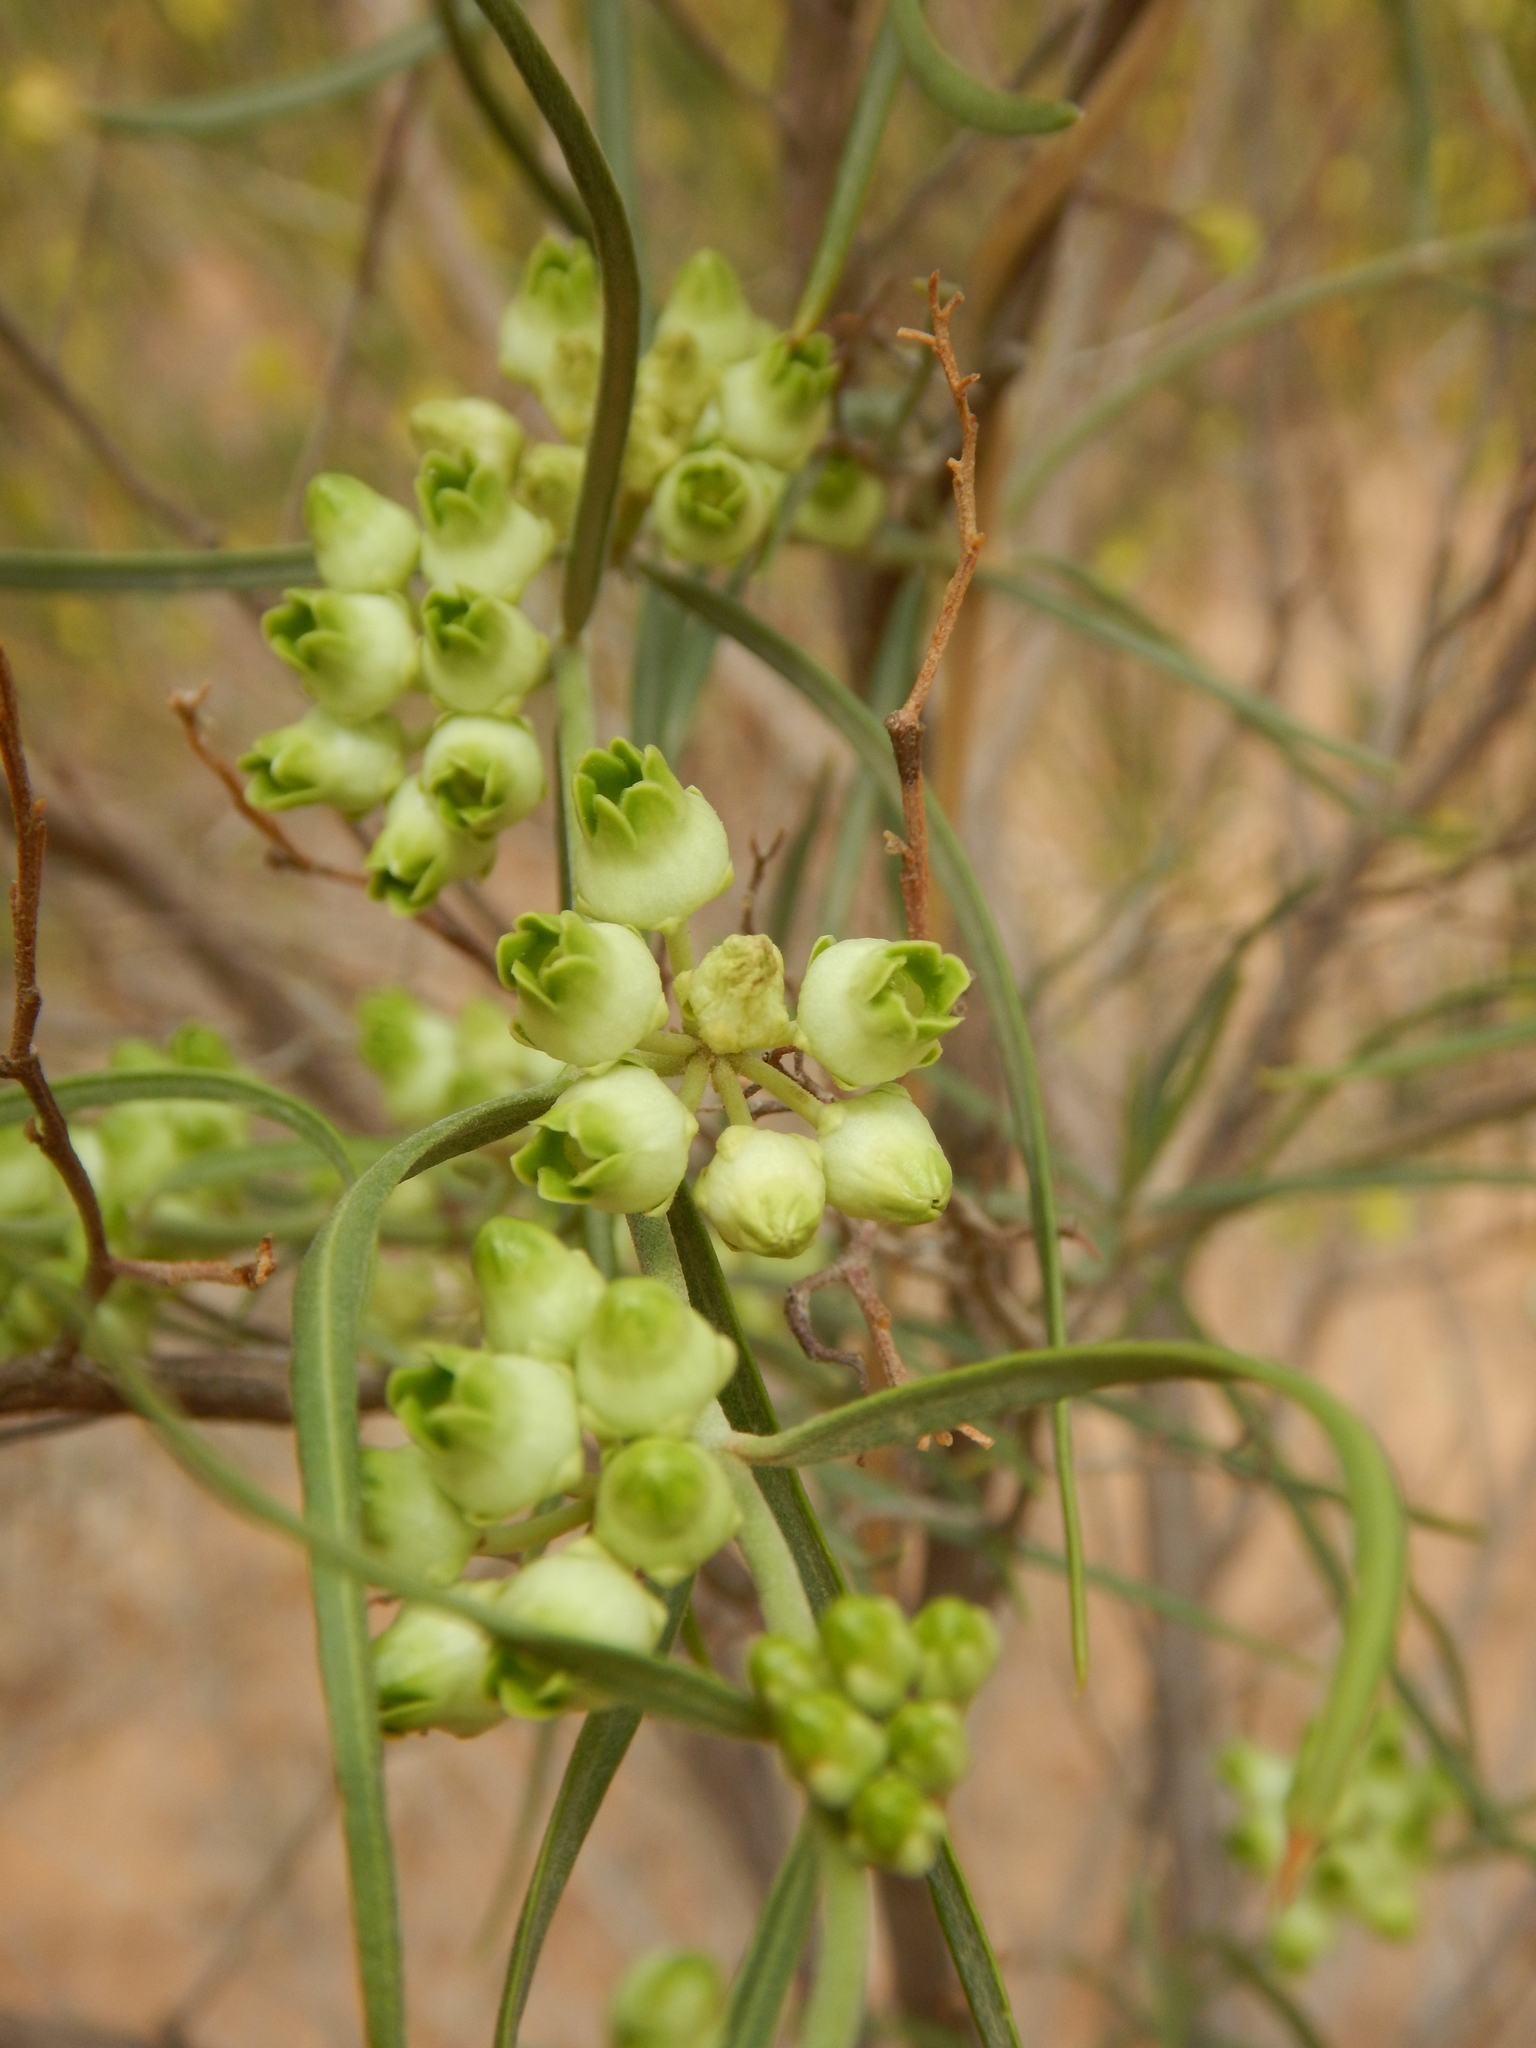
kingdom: Plantae
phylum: Tracheophyta
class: Magnoliopsida
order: Gentianales
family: Apocynaceae
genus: Leichhardtia
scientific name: Leichhardtia australis
